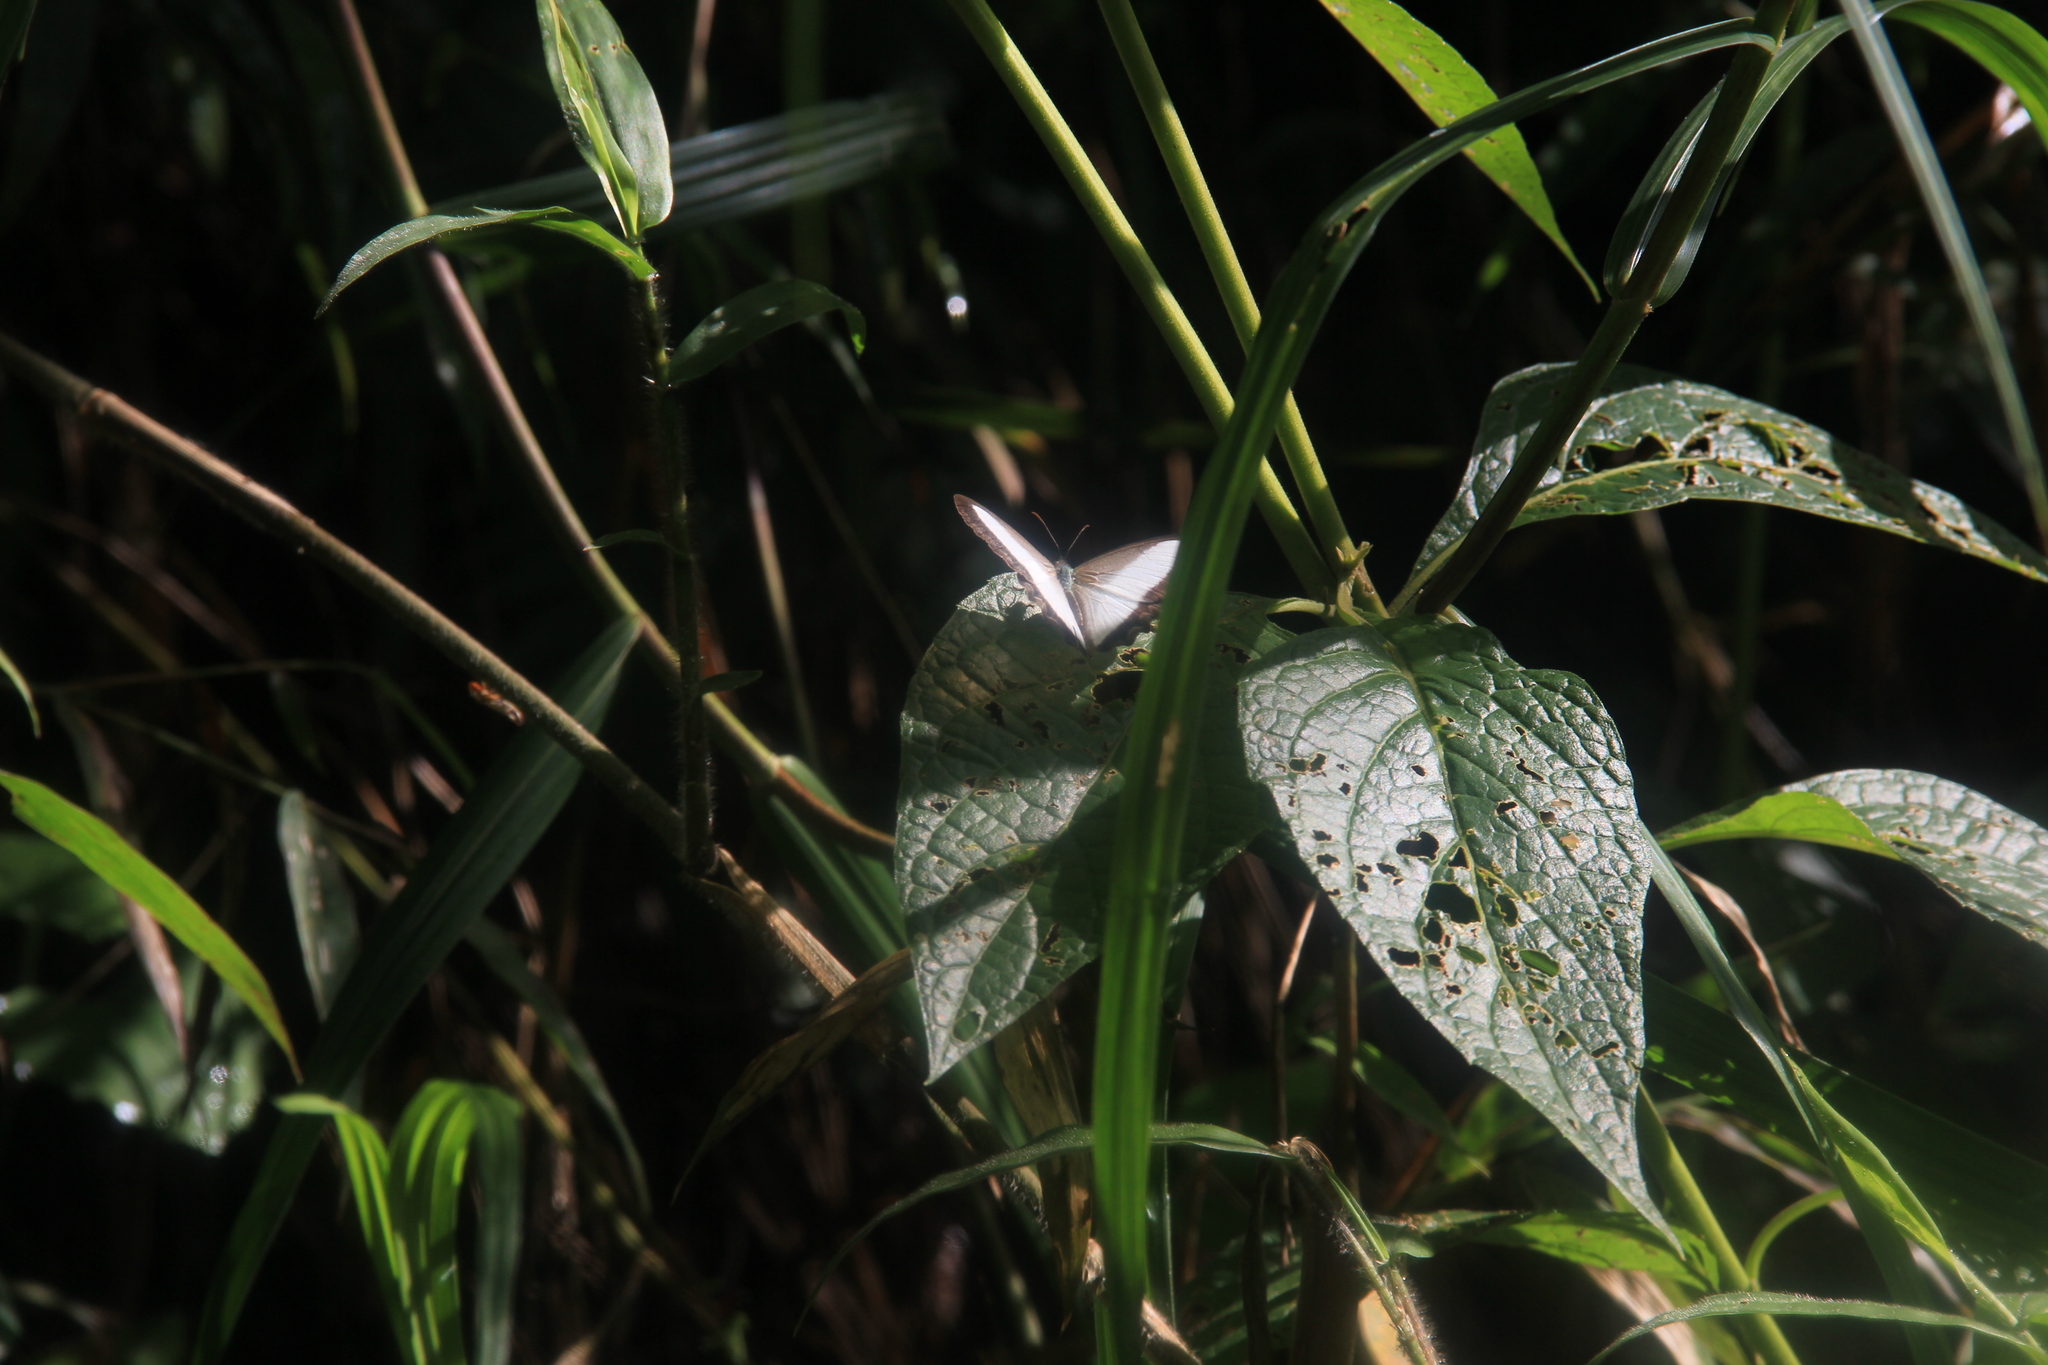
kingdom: Animalia
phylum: Arthropoda
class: Insecta
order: Lepidoptera
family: Nymphalidae
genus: Oressinoma
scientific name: Oressinoma typhla
